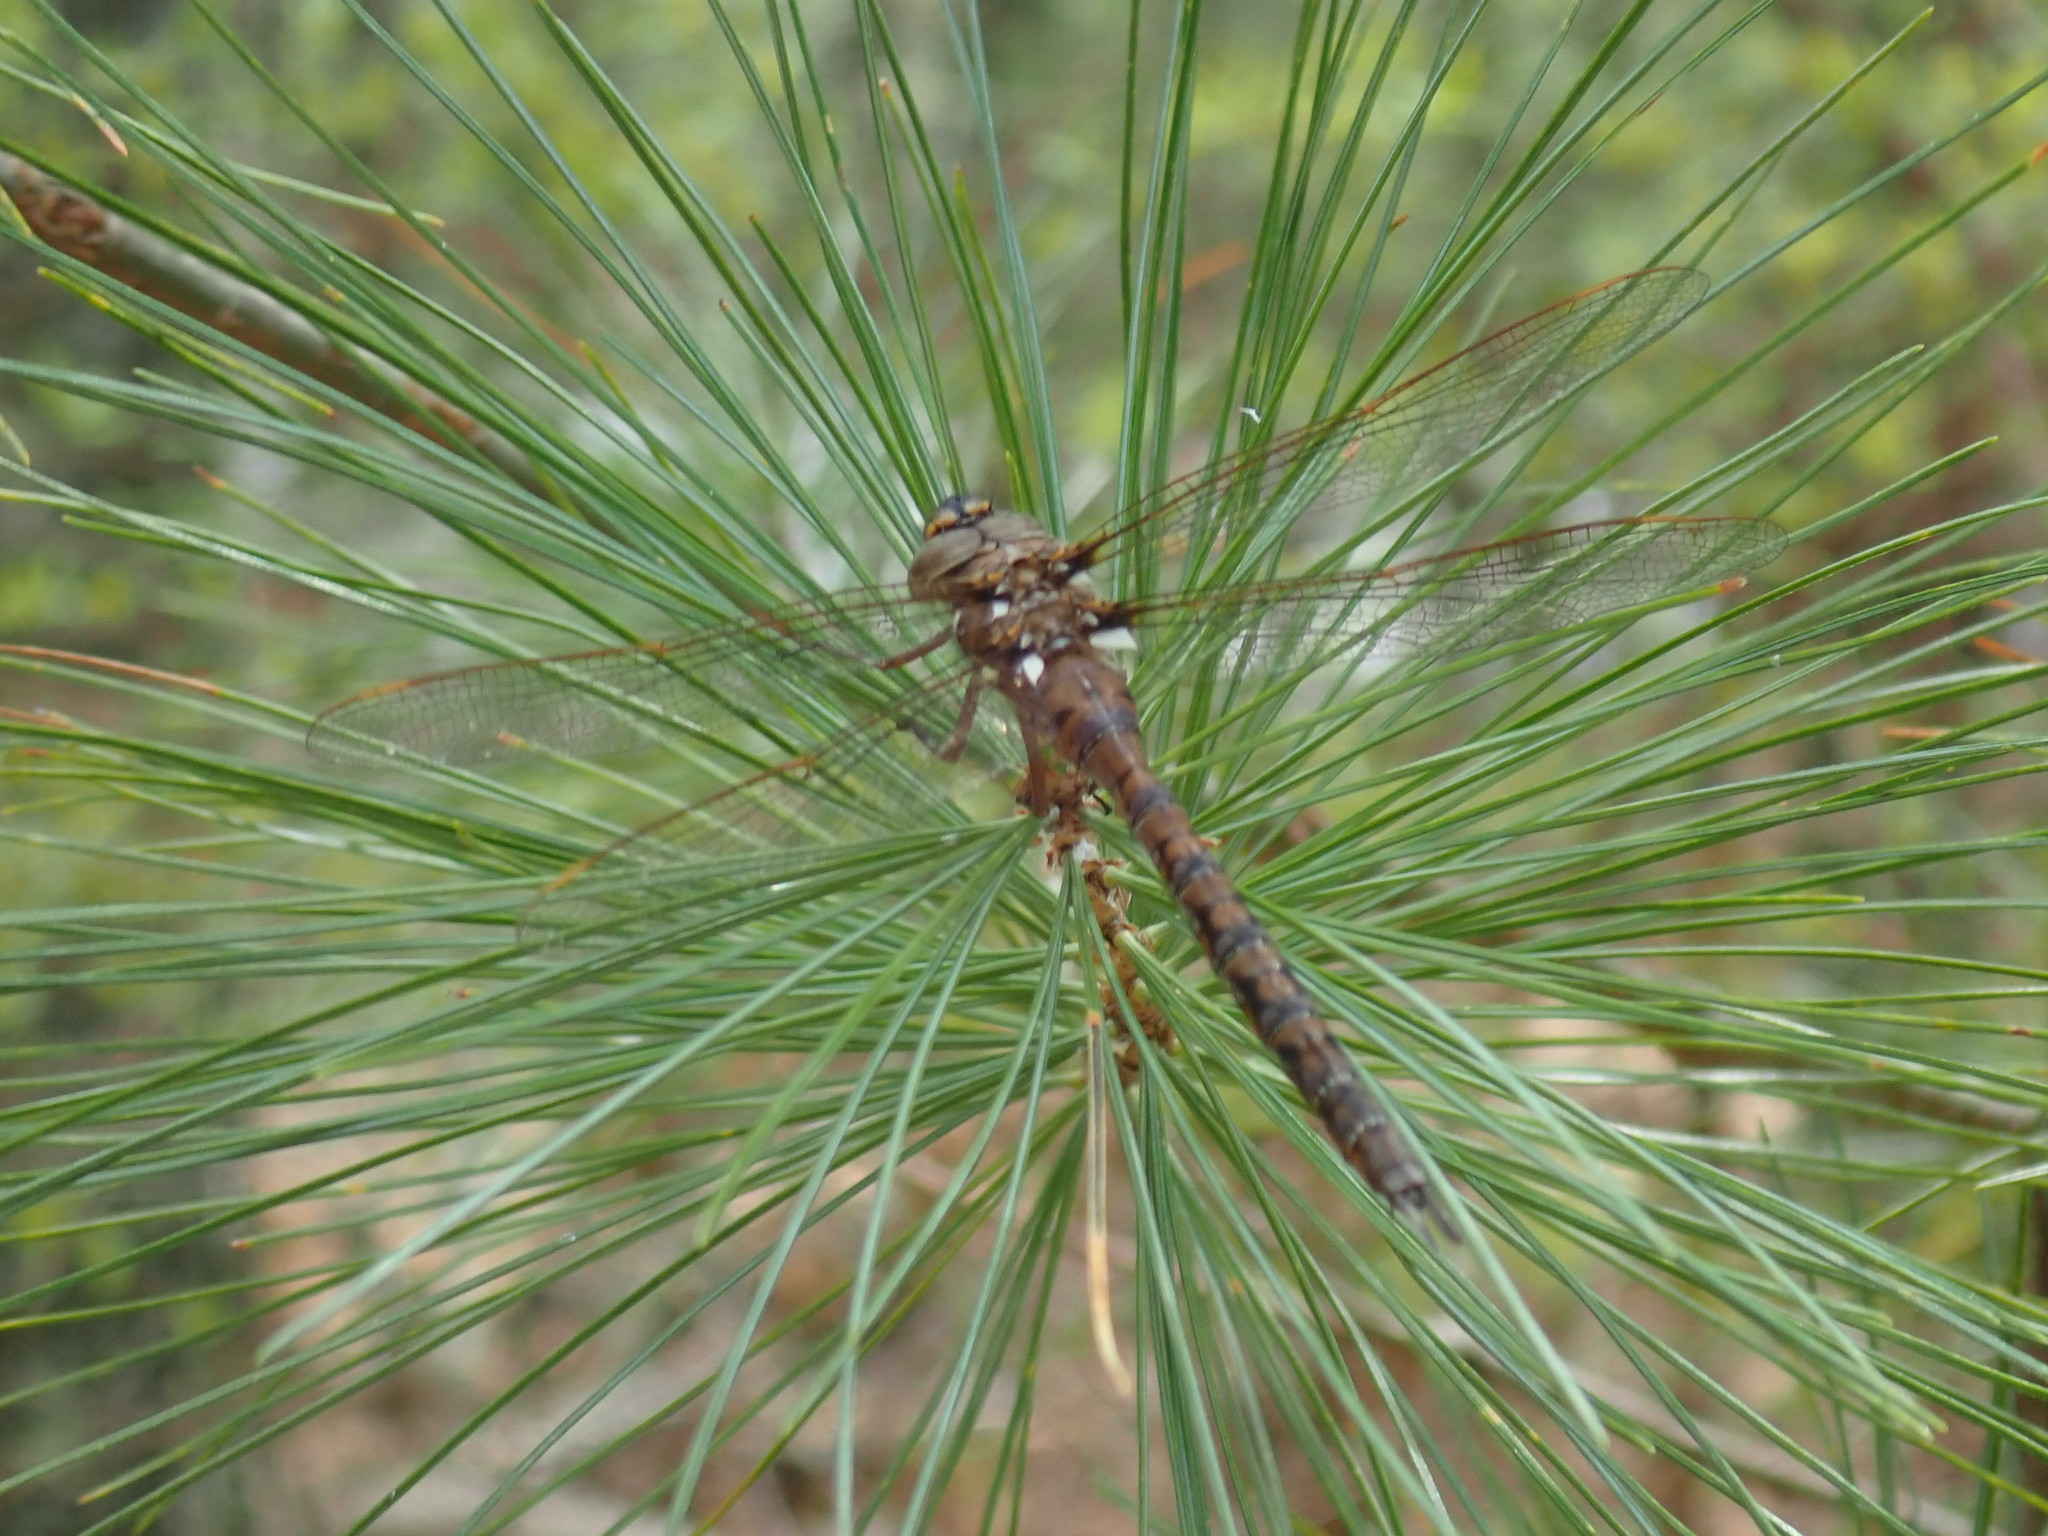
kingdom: Animalia
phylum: Arthropoda
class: Insecta
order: Odonata
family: Aeshnidae
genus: Basiaeschna
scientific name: Basiaeschna janata
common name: Springtime darner
